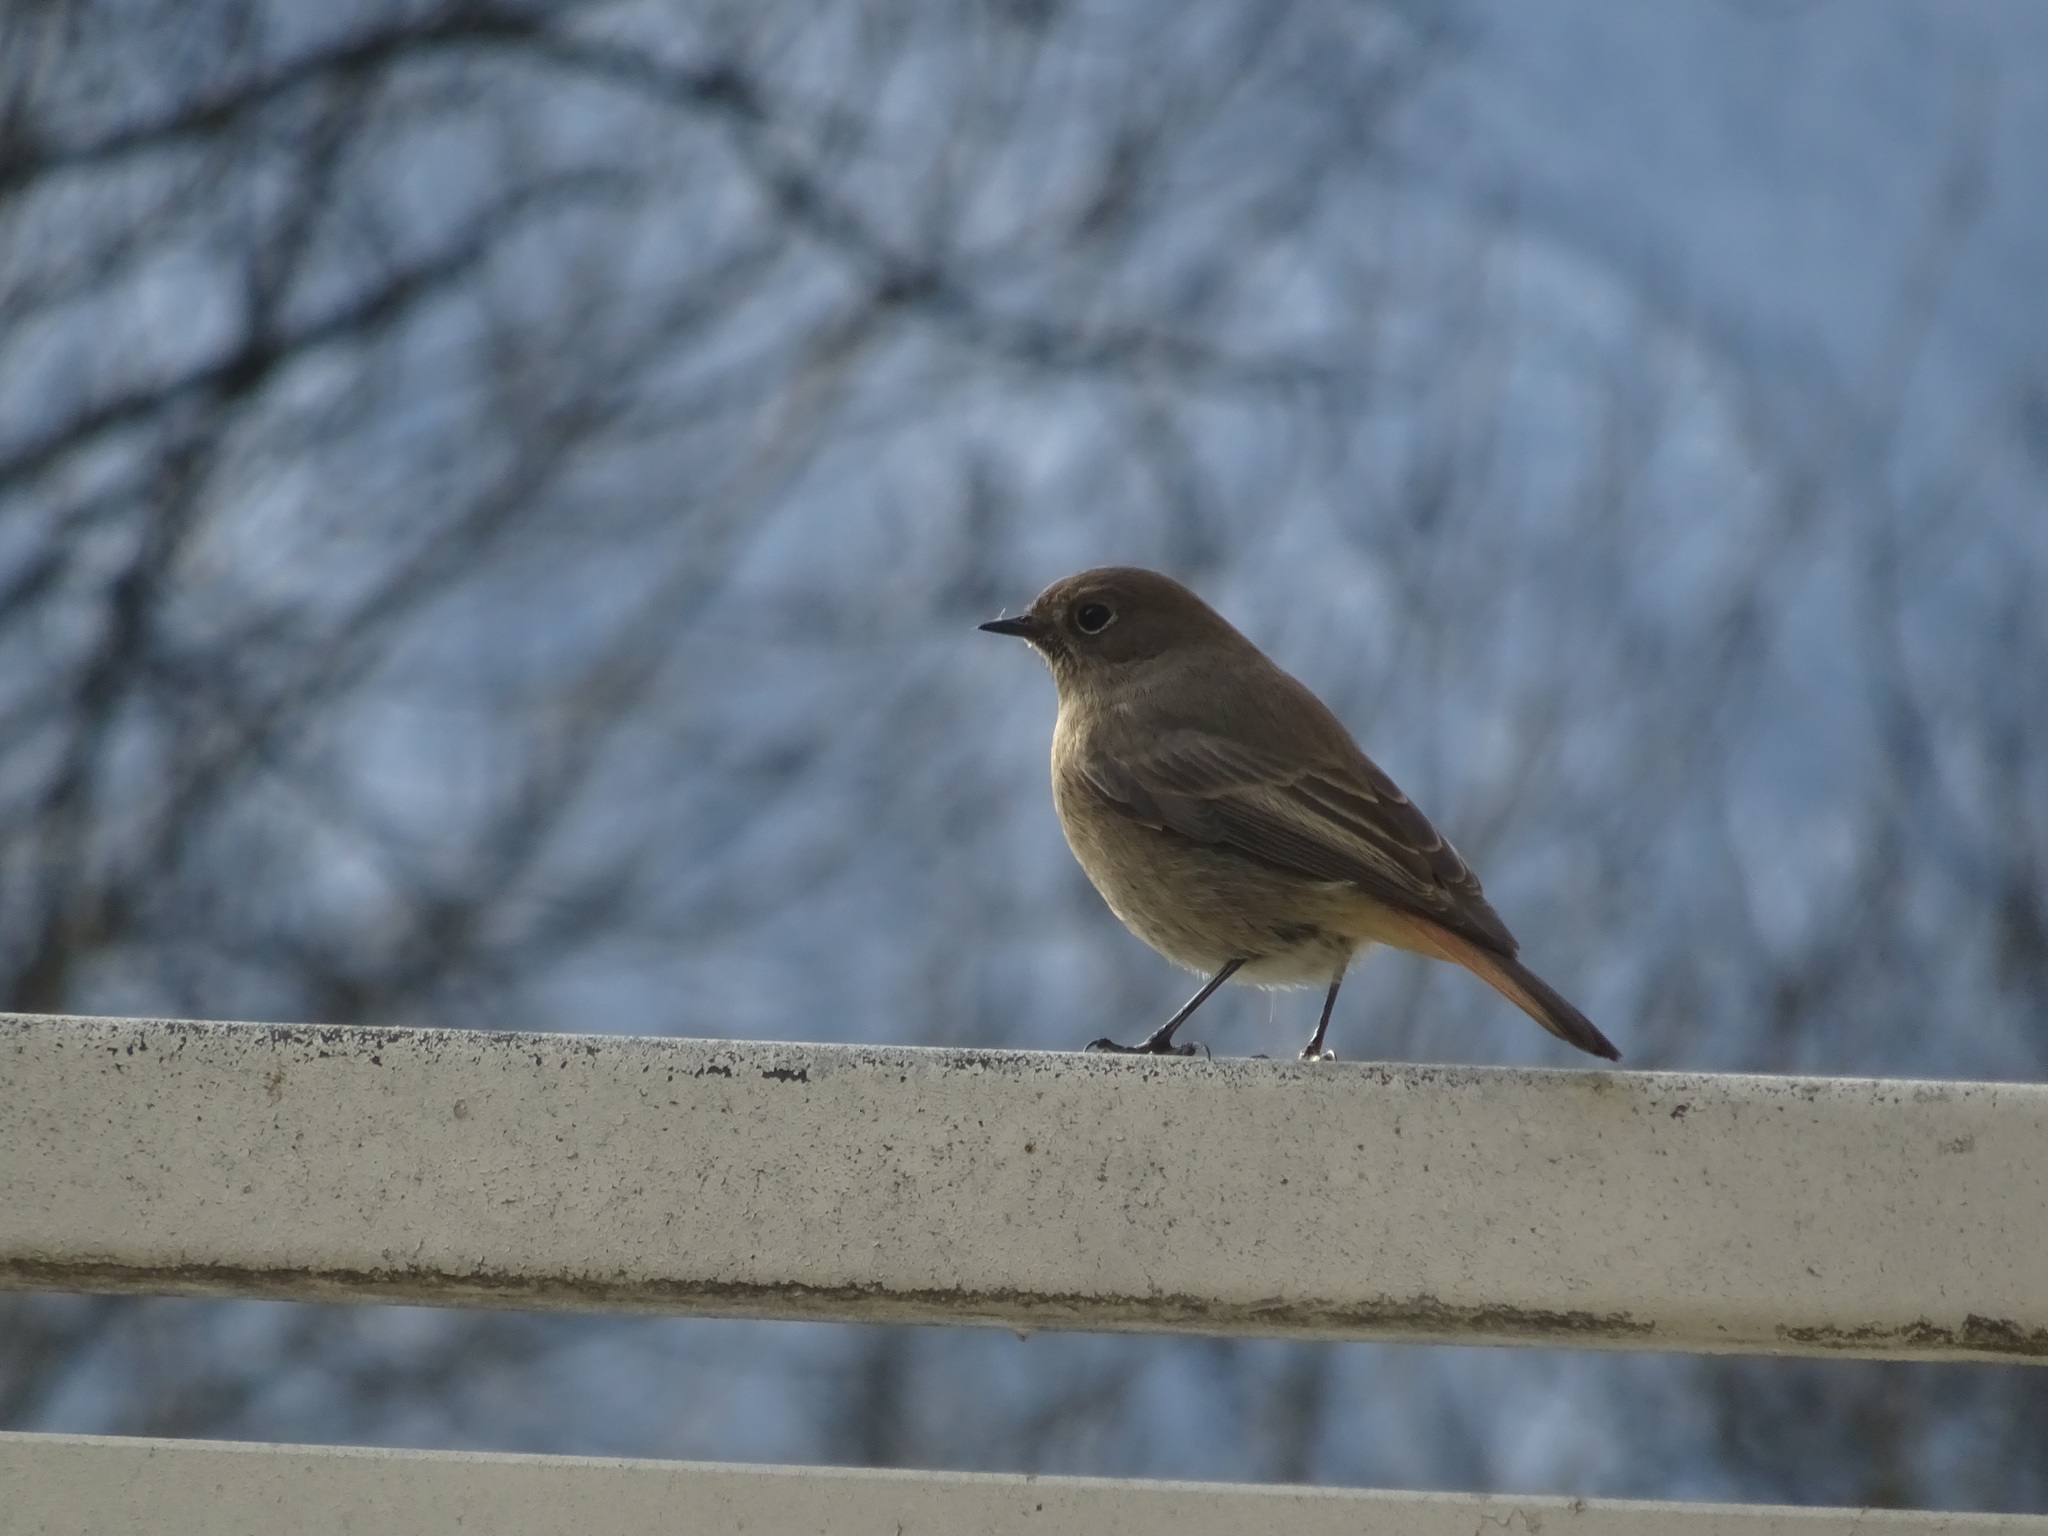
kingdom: Animalia
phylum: Chordata
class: Aves
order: Passeriformes
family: Muscicapidae
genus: Phoenicurus
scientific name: Phoenicurus ochruros
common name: Black redstart
